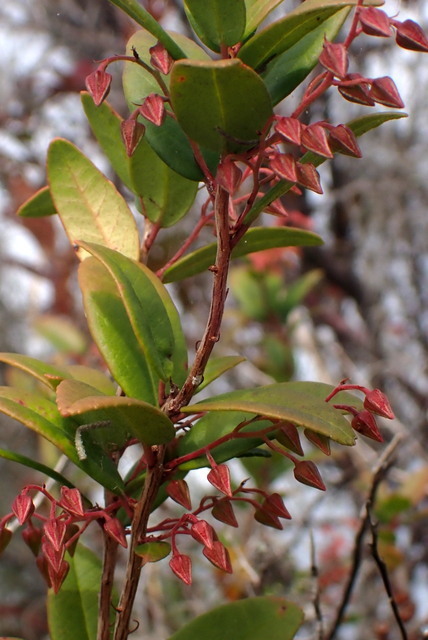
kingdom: Plantae
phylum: Tracheophyta
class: Magnoliopsida
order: Ericales
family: Ericaceae
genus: Pieris
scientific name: Pieris phillyreifolia
